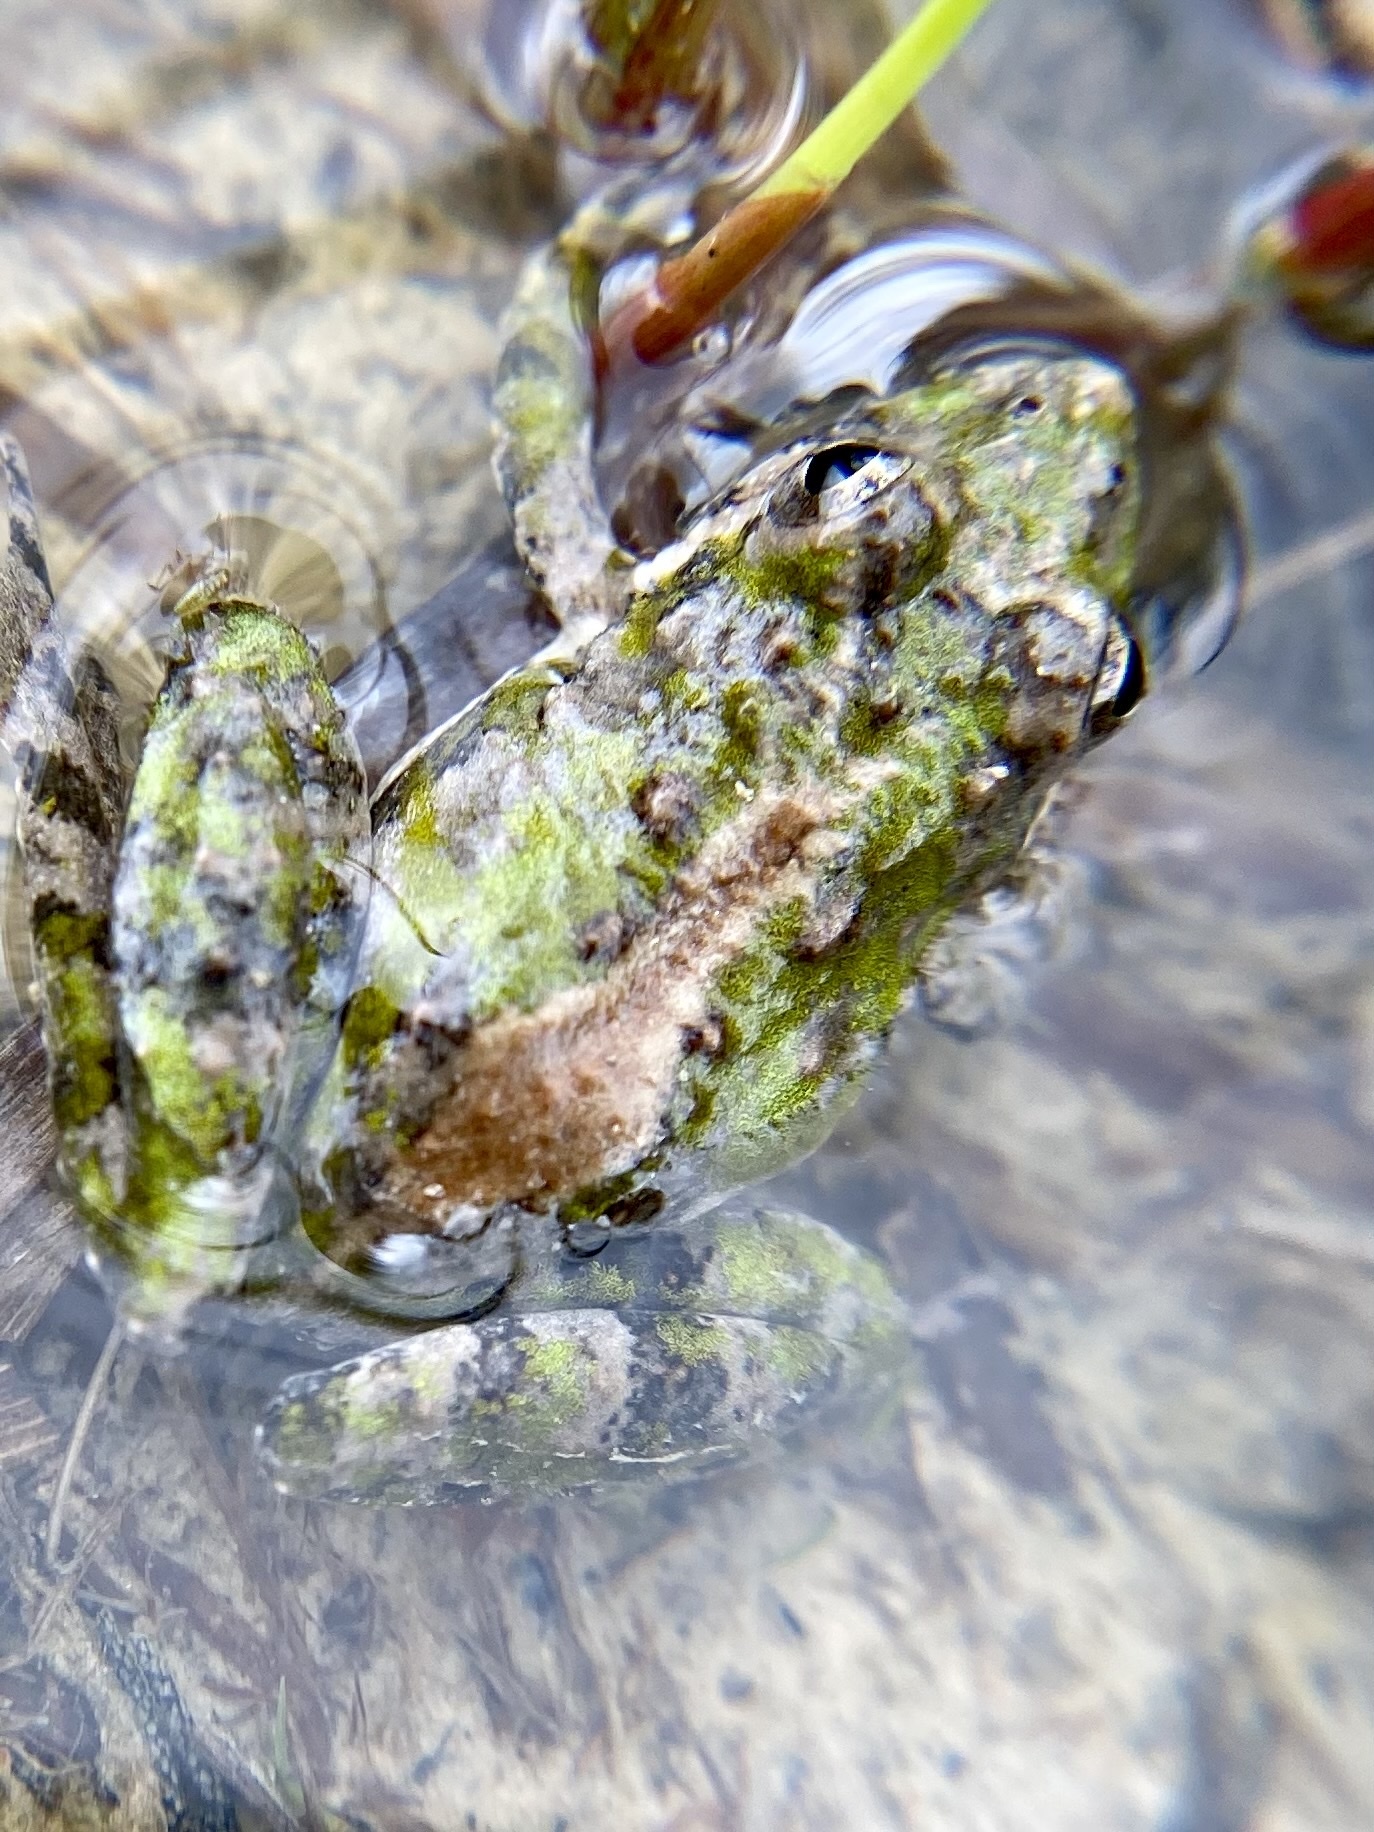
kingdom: Animalia
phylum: Chordata
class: Amphibia
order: Anura
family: Hylidae
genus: Acris
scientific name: Acris blanchardi
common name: Blanchard's cricket frog
